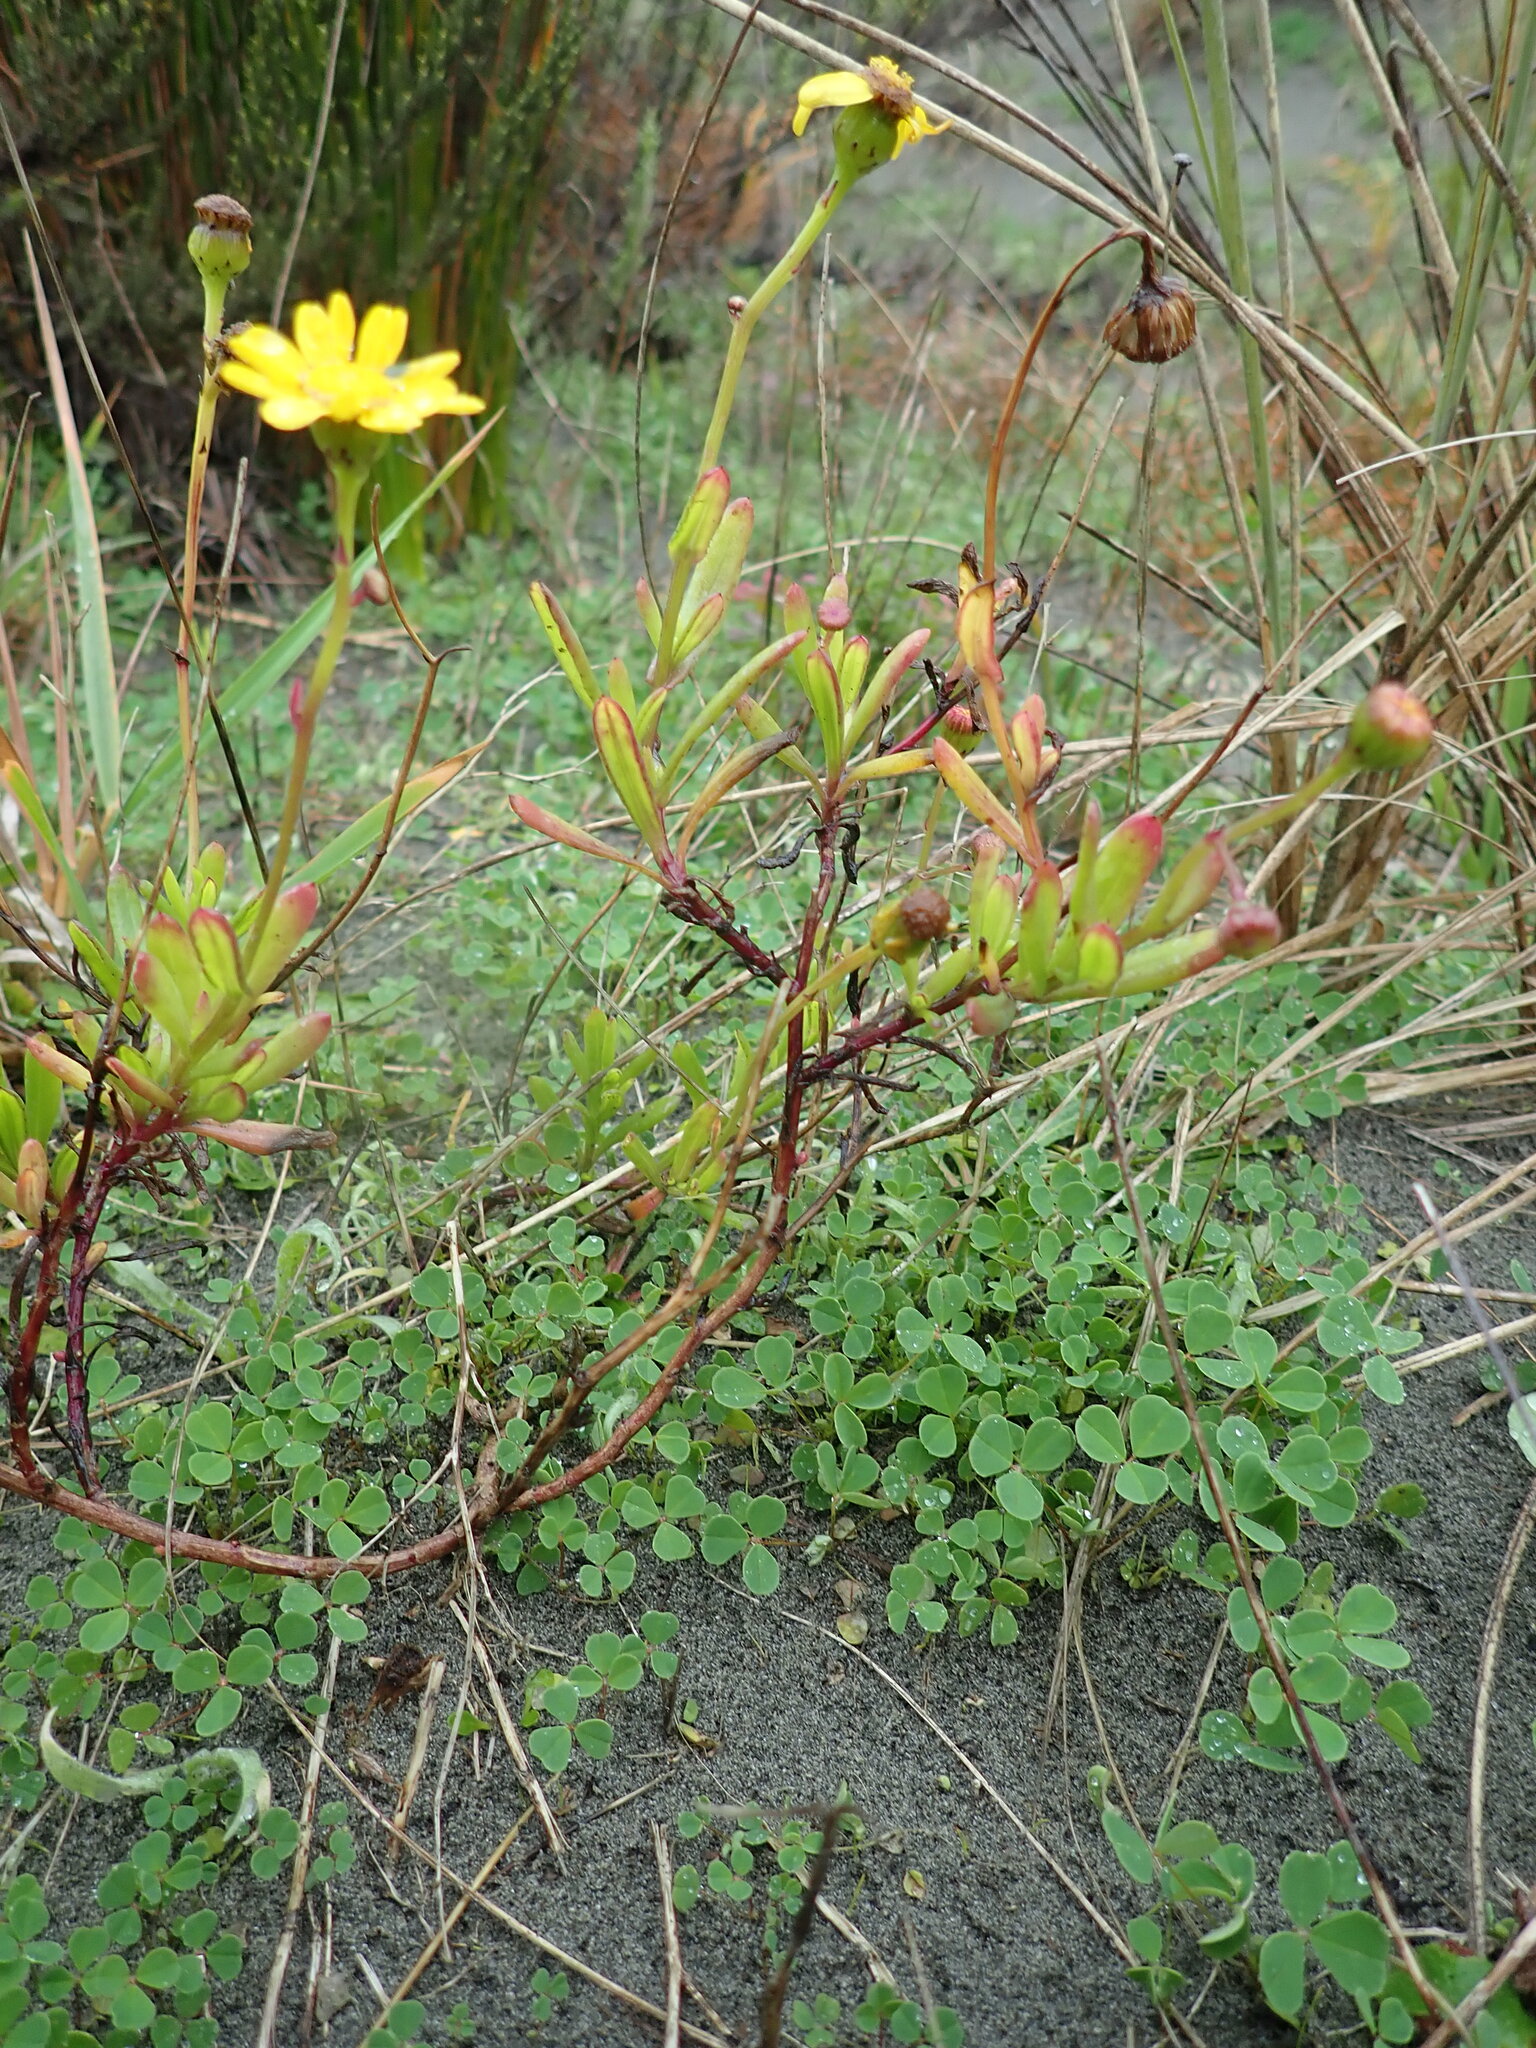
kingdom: Plantae
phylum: Tracheophyta
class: Magnoliopsida
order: Asterales
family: Asteraceae
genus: Senecio
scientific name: Senecio skirrhodon
